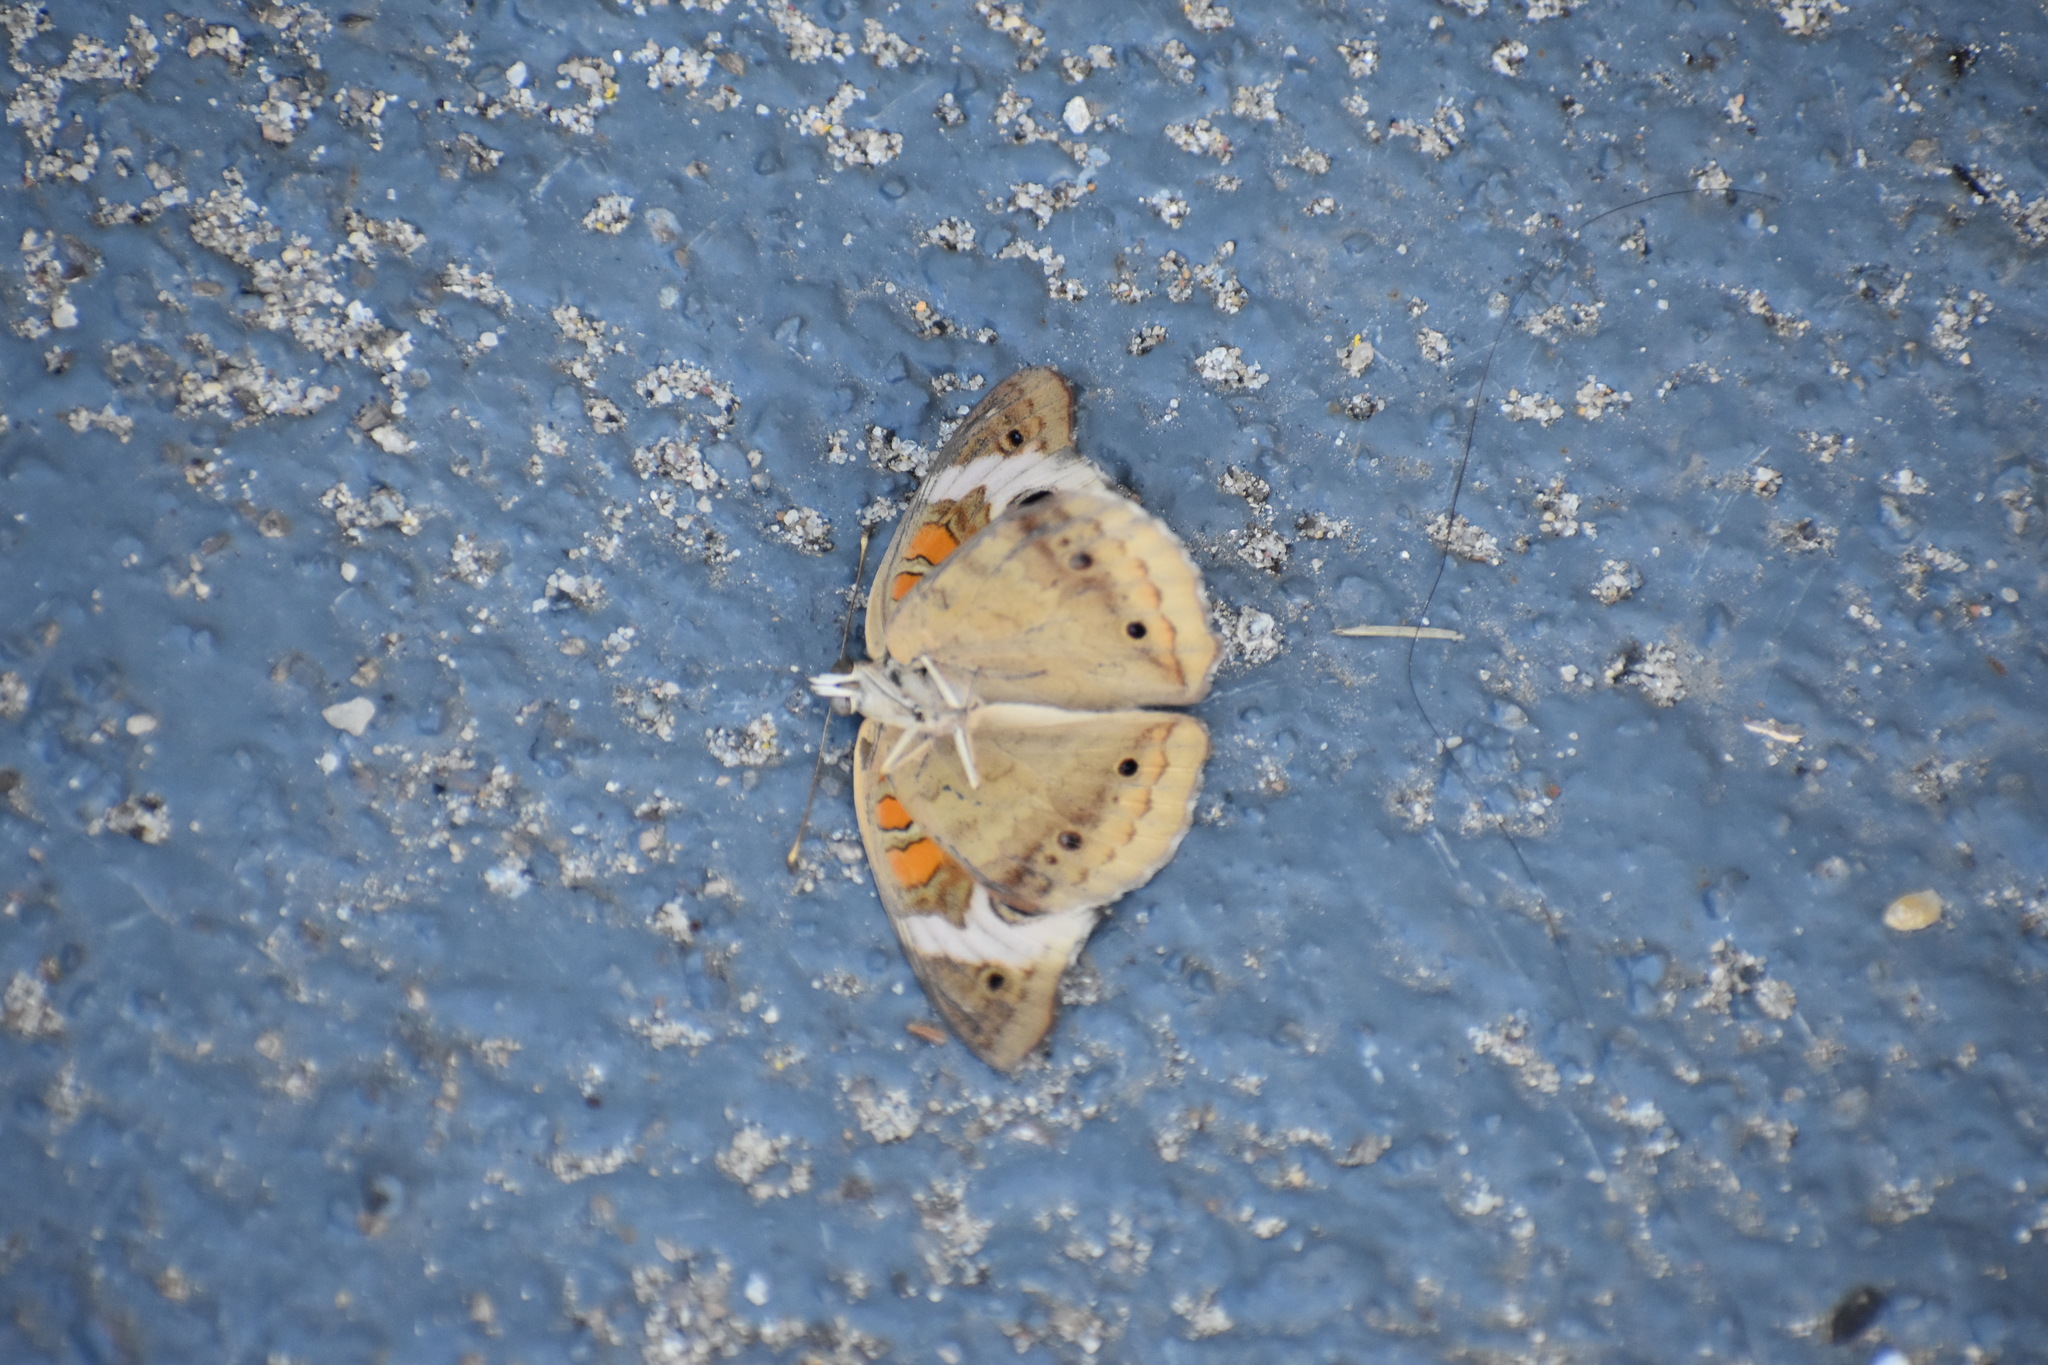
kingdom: Animalia
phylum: Arthropoda
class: Insecta
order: Lepidoptera
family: Nymphalidae
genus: Junonia
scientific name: Junonia coenia
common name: Common buckeye
